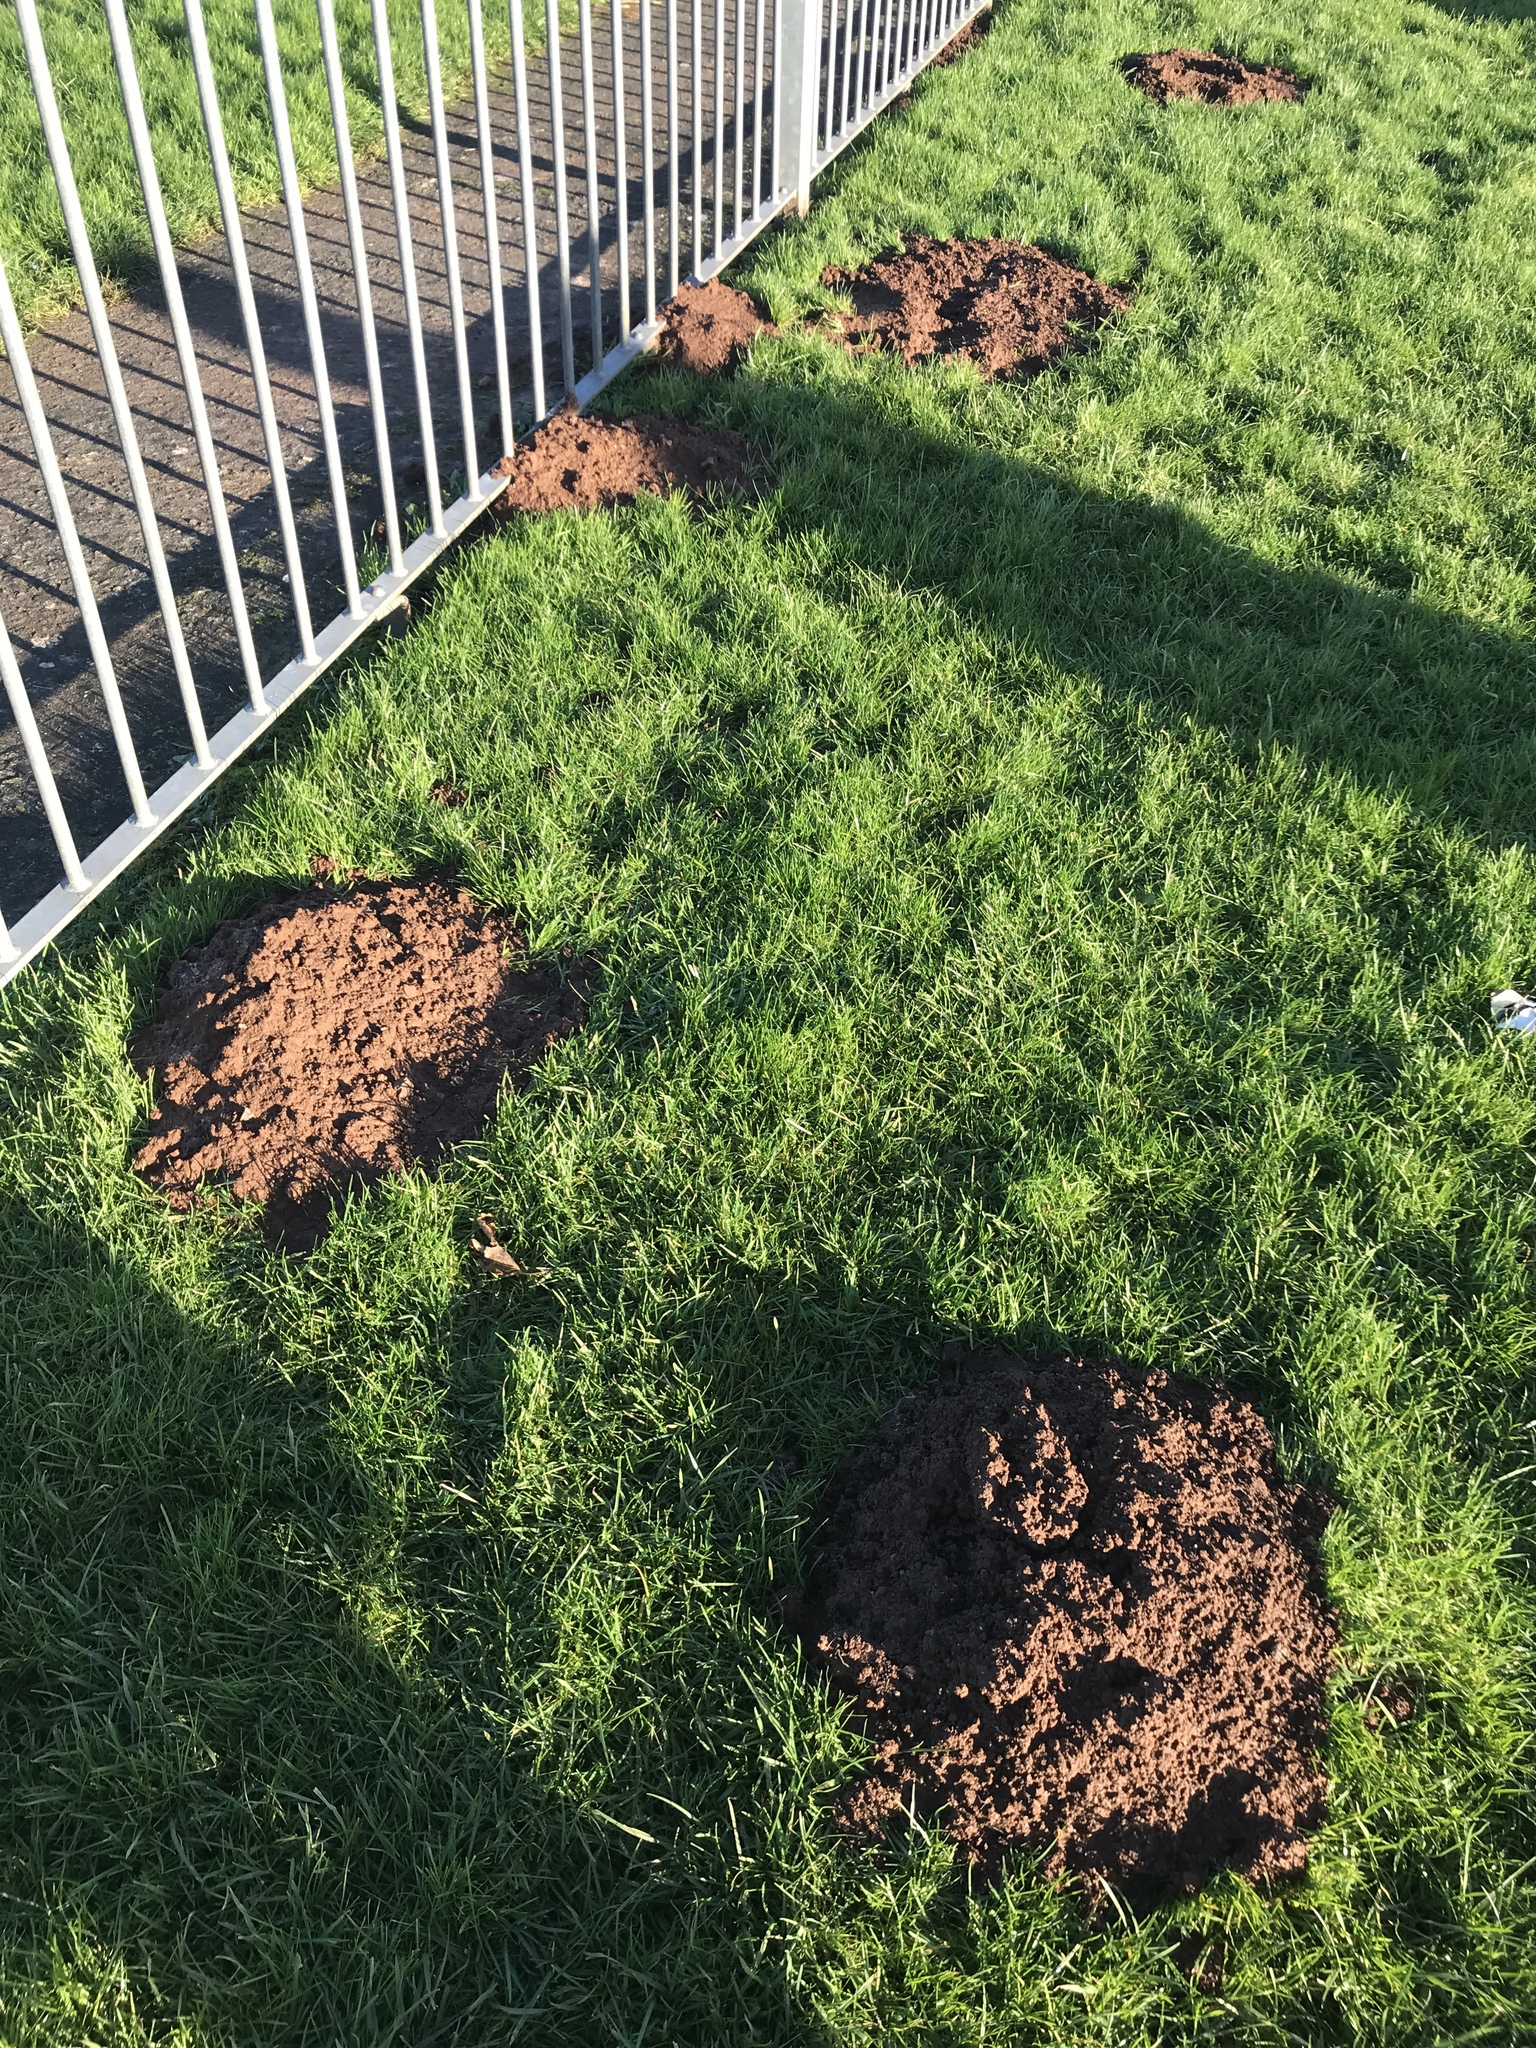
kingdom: Animalia
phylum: Chordata
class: Mammalia
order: Soricomorpha
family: Talpidae
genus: Talpa
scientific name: Talpa europaea
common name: European mole
